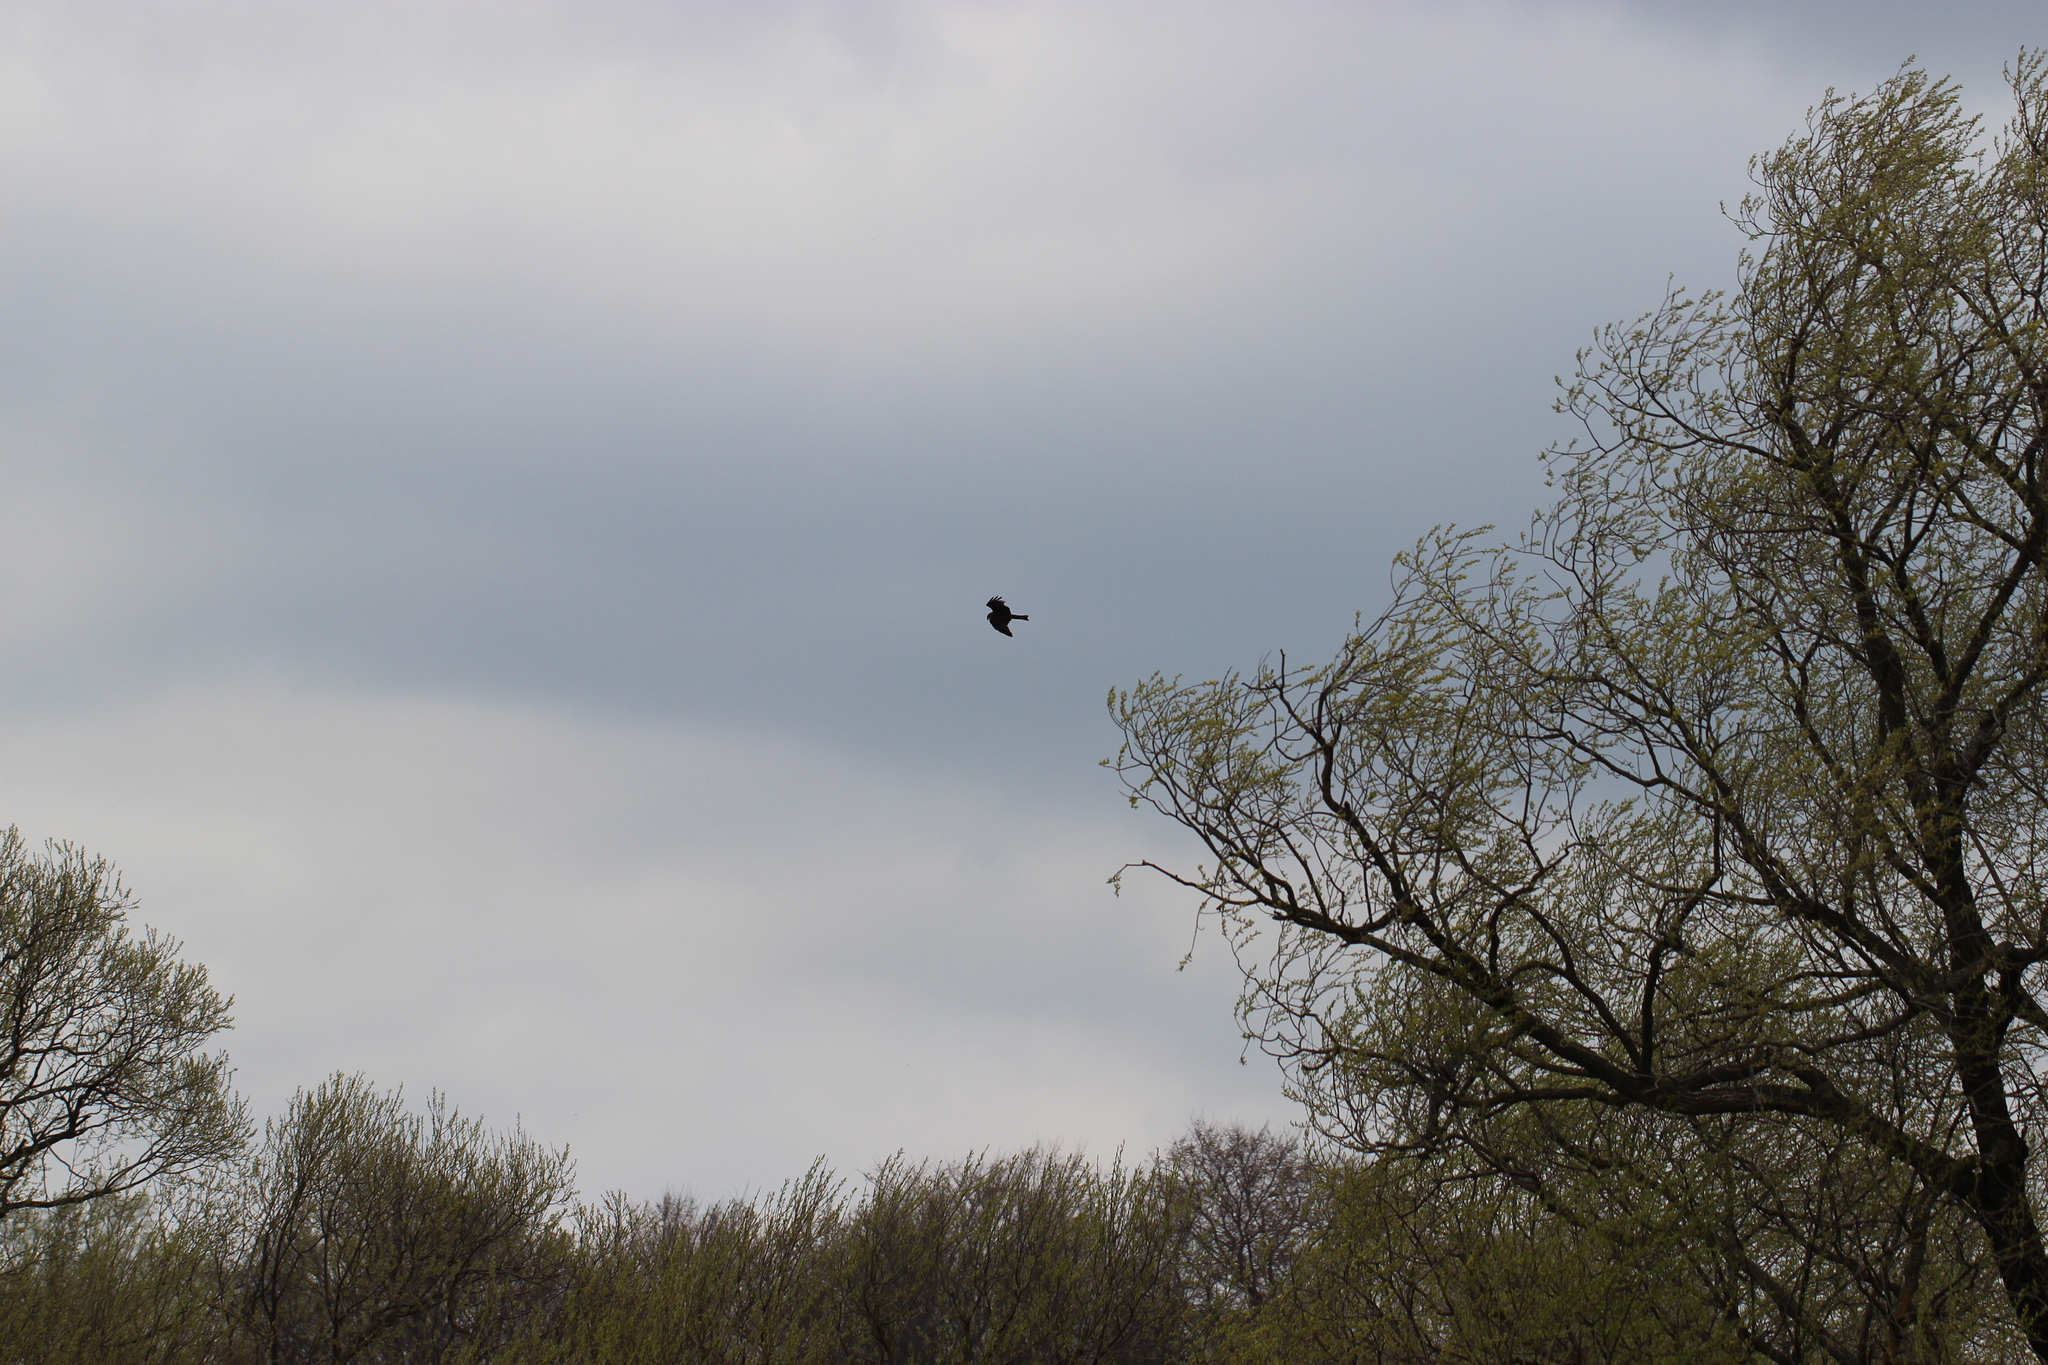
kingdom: Animalia
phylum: Chordata
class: Aves
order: Accipitriformes
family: Accipitridae
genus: Milvus
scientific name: Milvus migrans
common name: Black kite
